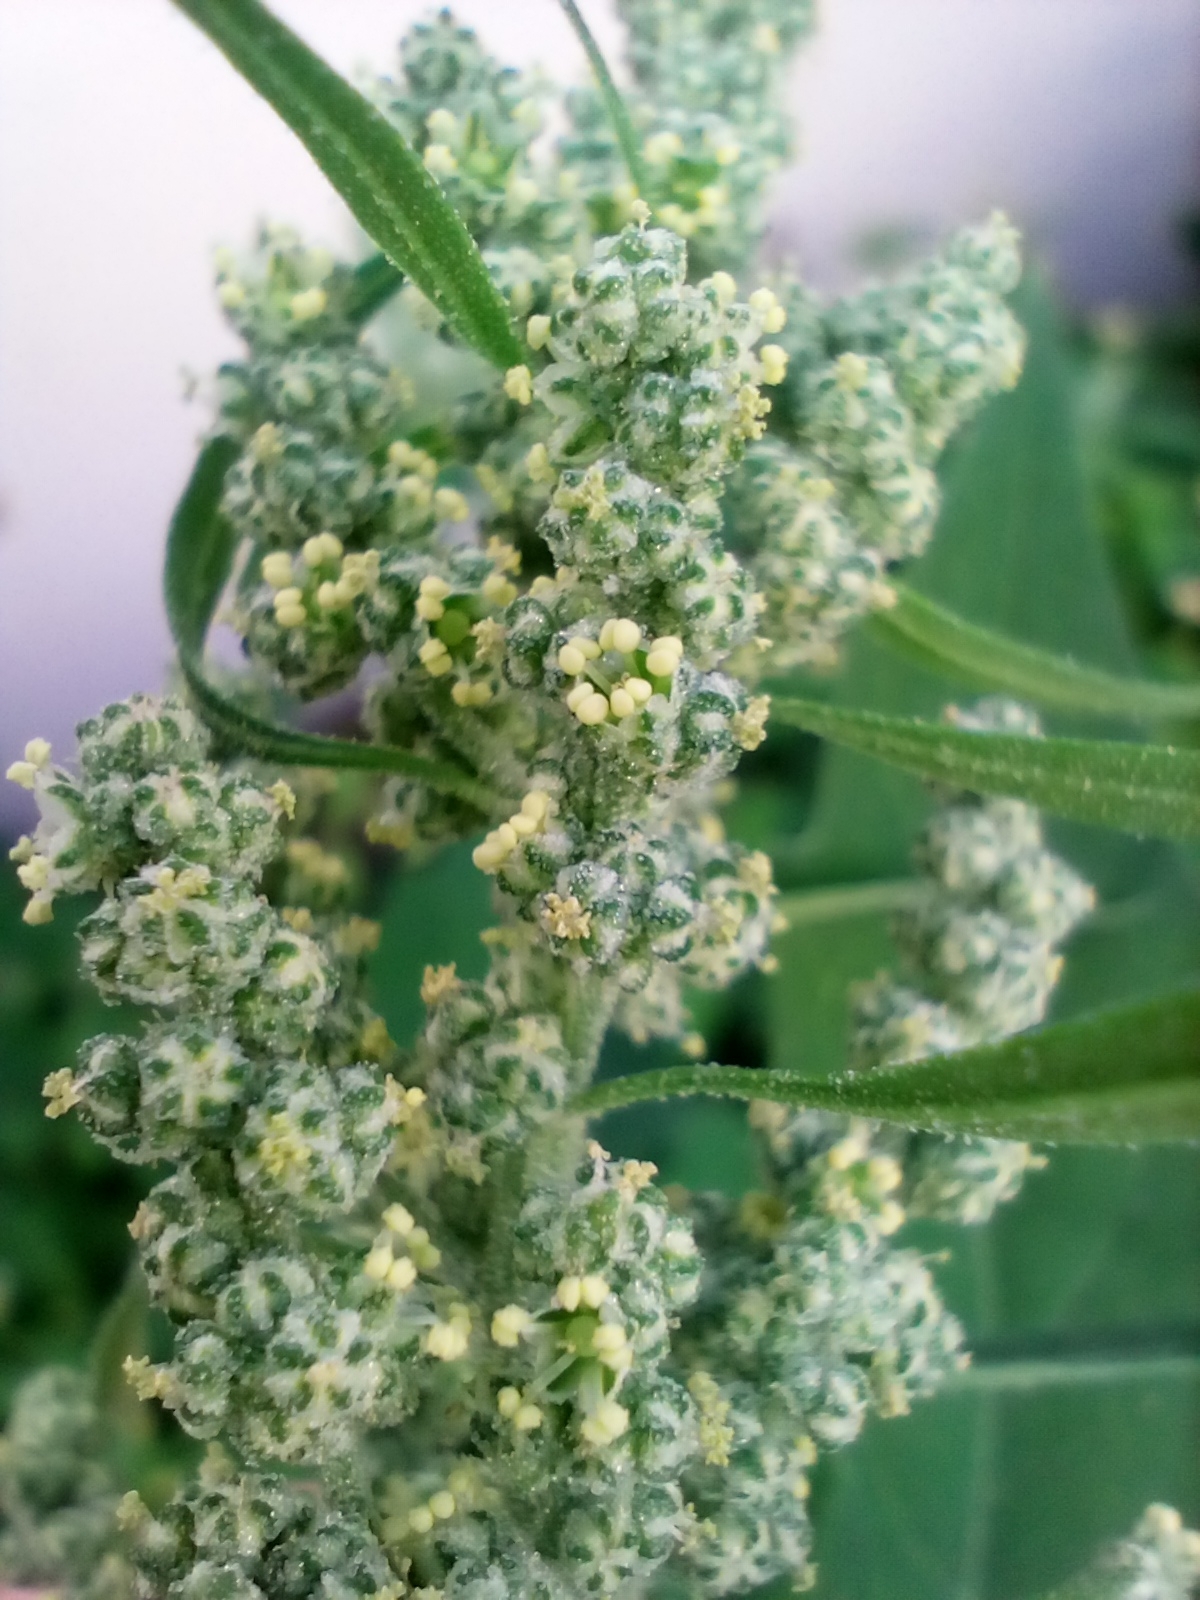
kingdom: Plantae
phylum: Tracheophyta
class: Magnoliopsida
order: Caryophyllales
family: Amaranthaceae
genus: Chenopodium
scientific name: Chenopodium album
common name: Fat-hen
